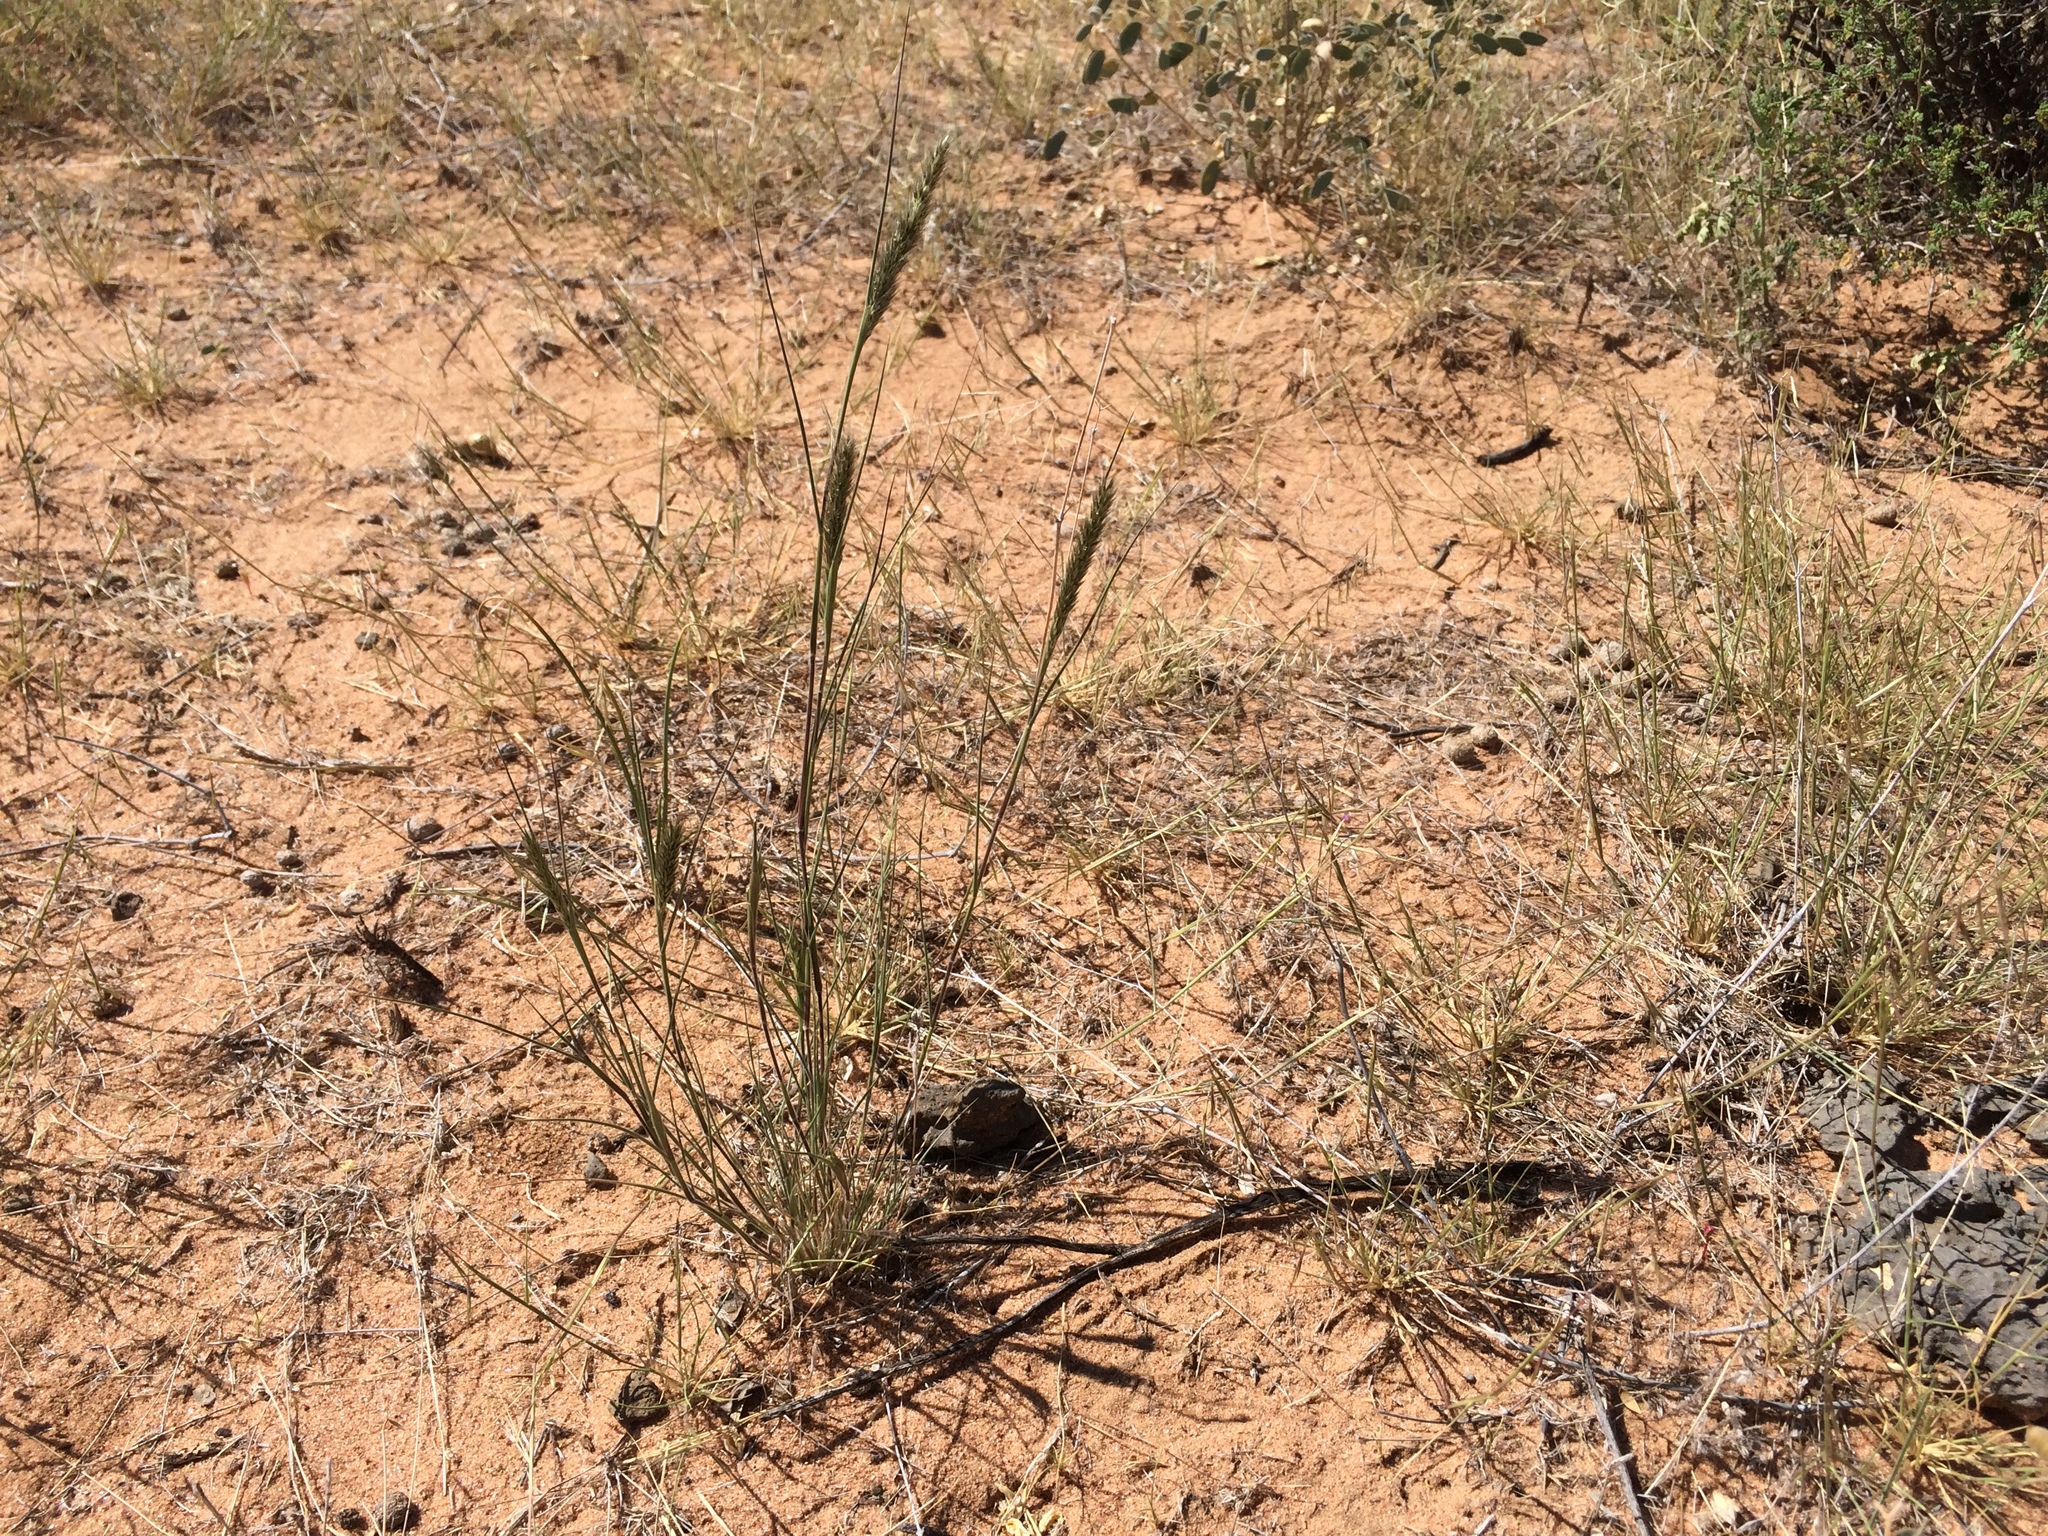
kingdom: Plantae
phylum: Tracheophyta
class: Liliopsida
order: Poales
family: Poaceae
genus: Enneapogon
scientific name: Enneapogon desvauxii
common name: Feather pappus grass
